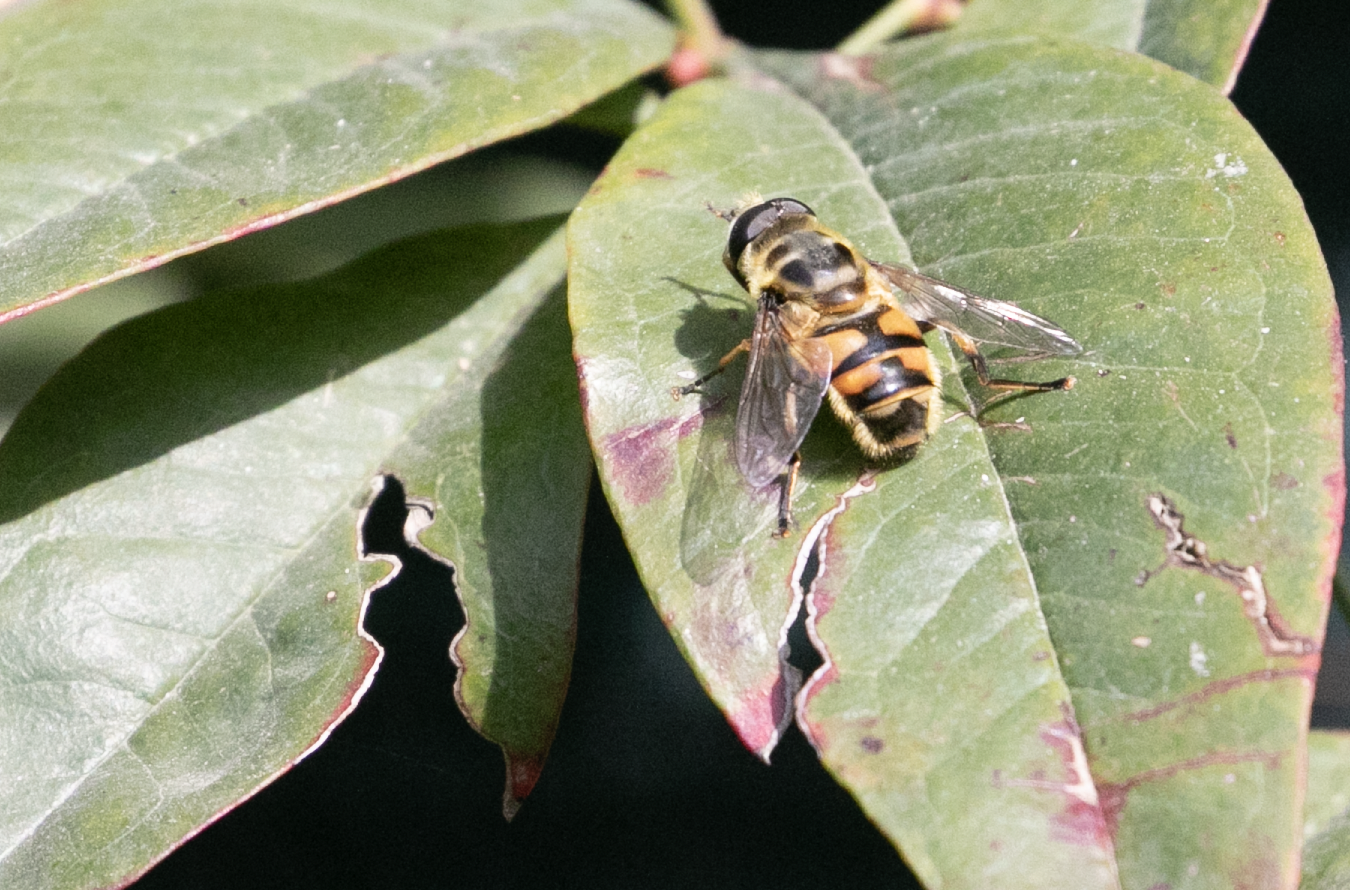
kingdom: Animalia
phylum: Arthropoda
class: Insecta
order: Diptera
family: Syrphidae
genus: Myathropa
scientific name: Myathropa florea
